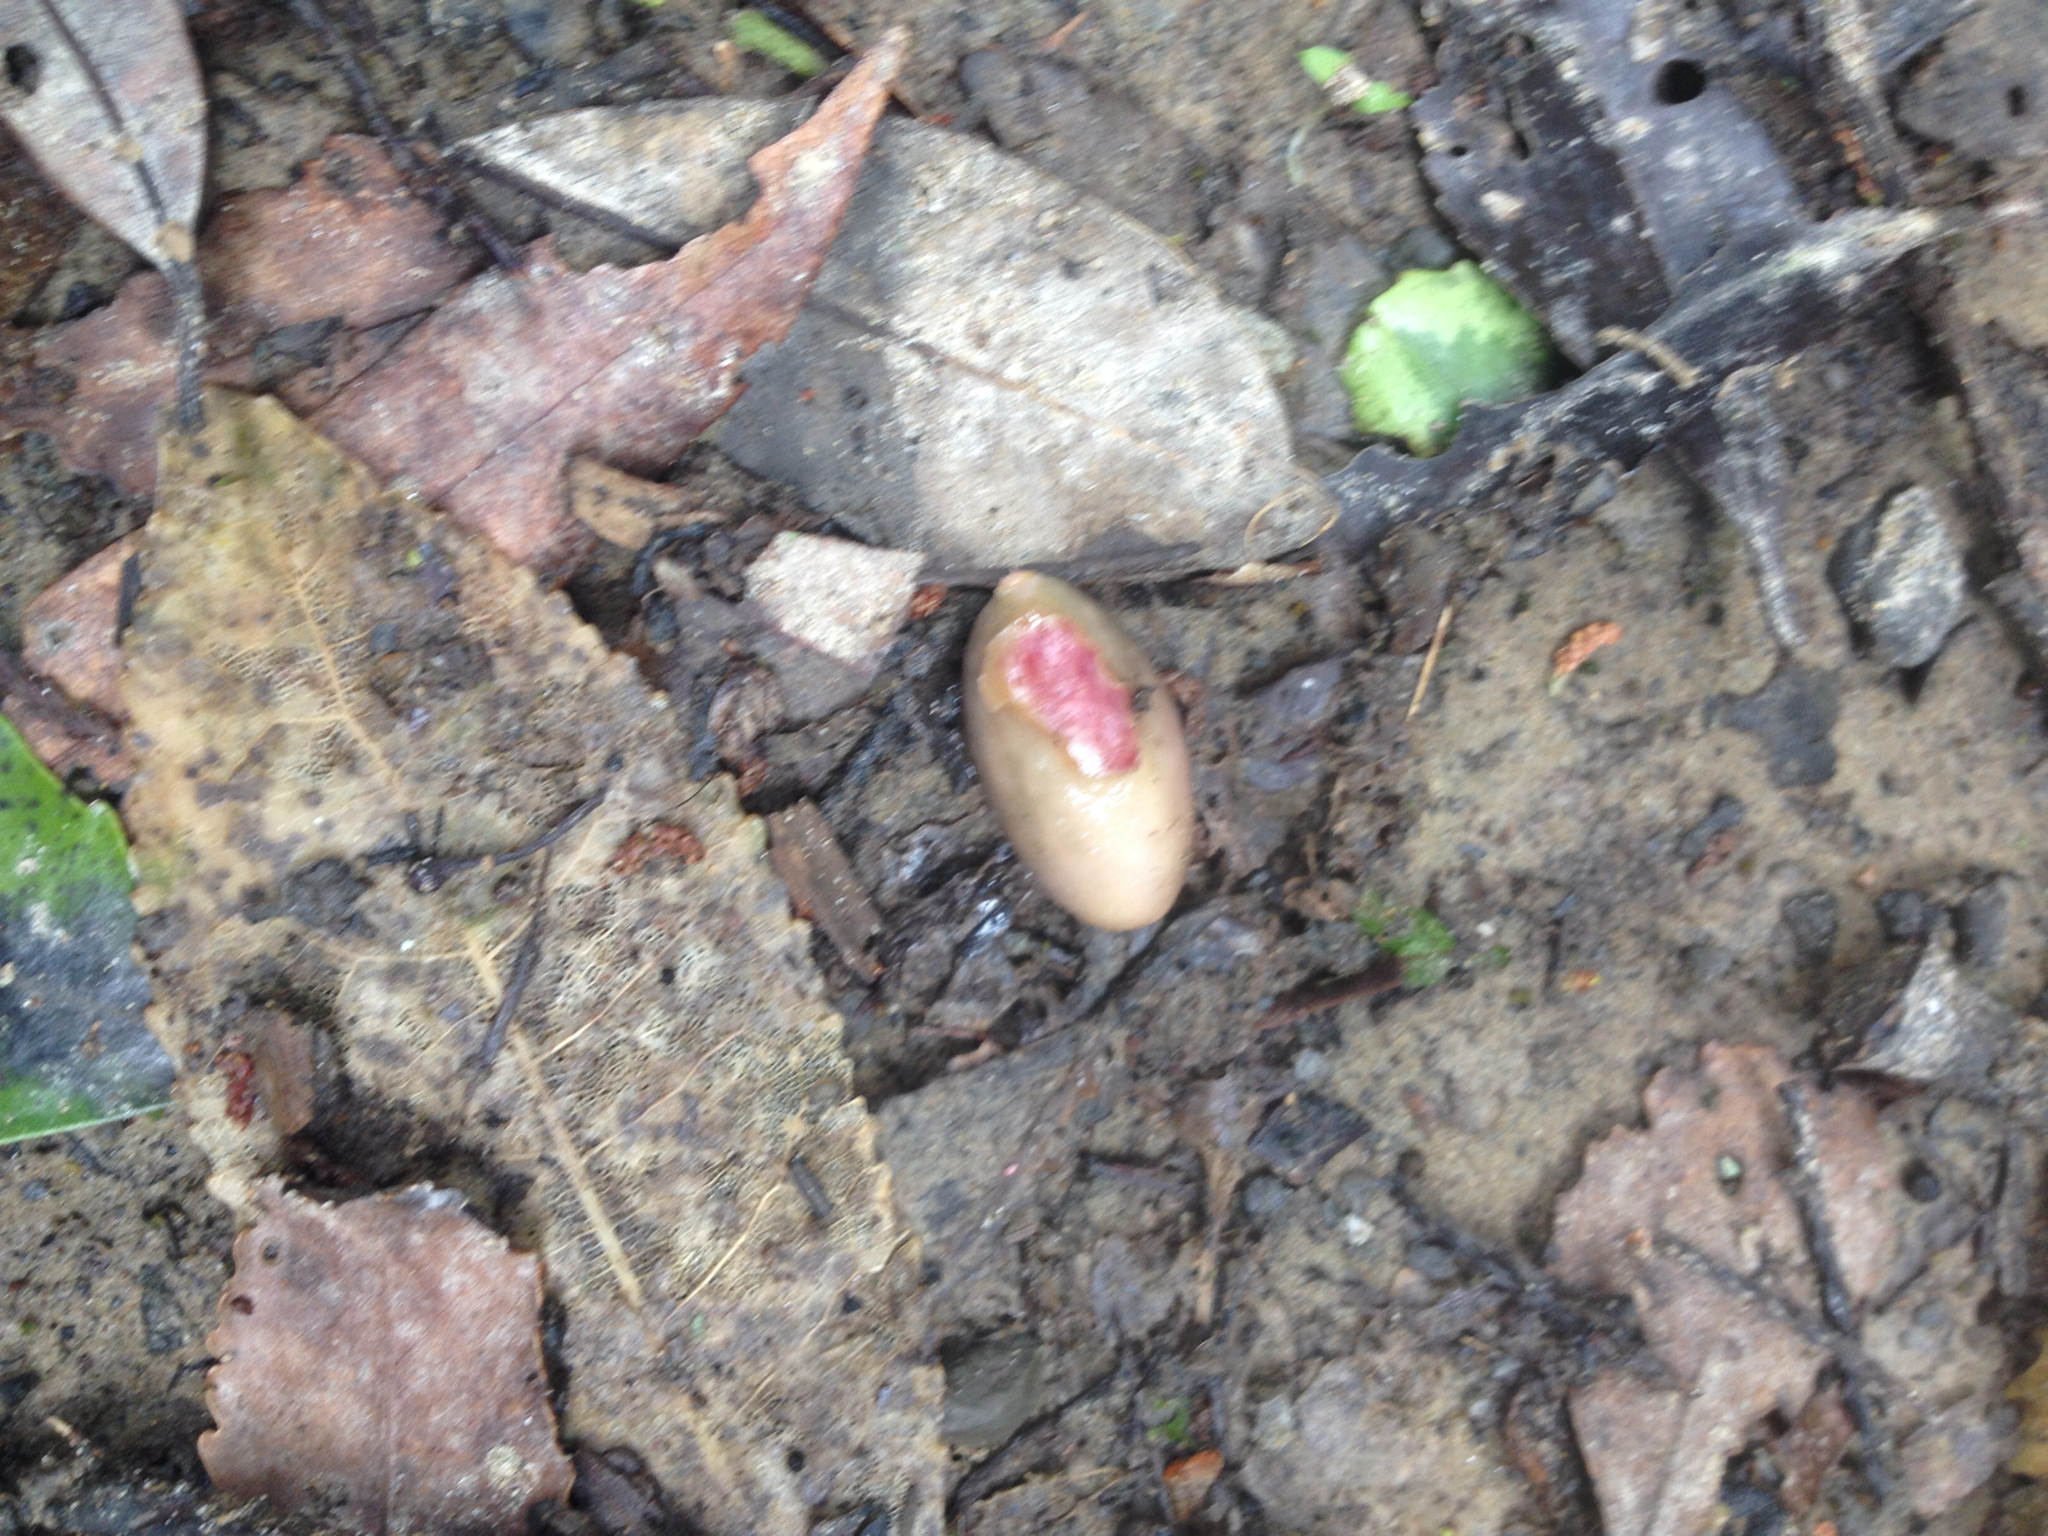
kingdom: Plantae
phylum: Tracheophyta
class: Magnoliopsida
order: Laurales
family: Lauraceae
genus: Beilschmiedia
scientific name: Beilschmiedia tawa
